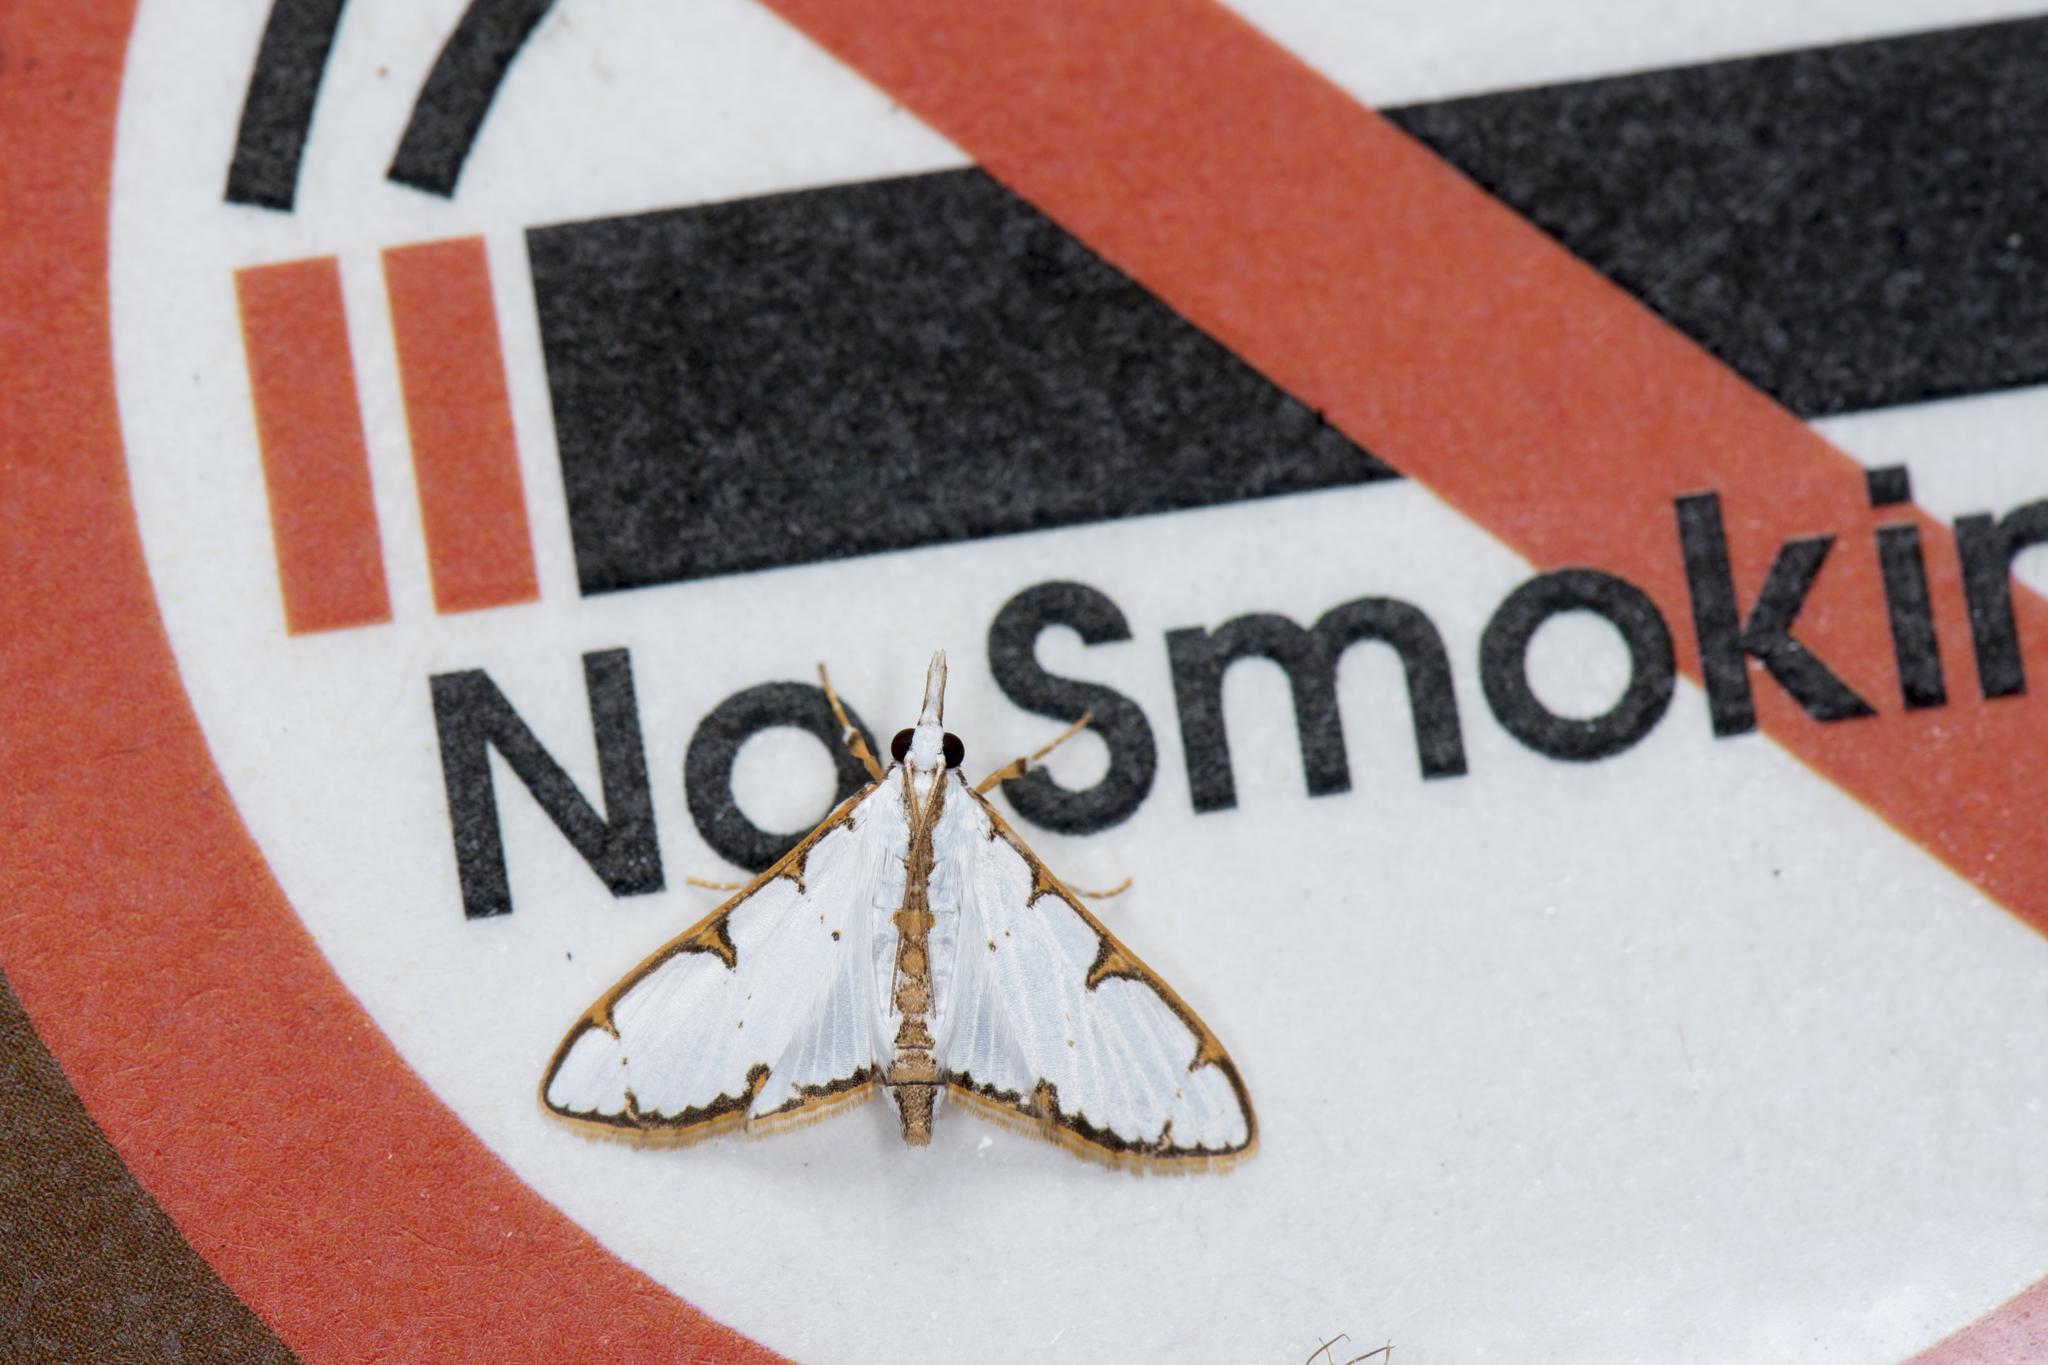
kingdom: Animalia
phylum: Arthropoda
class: Insecta
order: Lepidoptera
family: Crambidae
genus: Cirrhochrista
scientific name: Cirrhochrista spinuella
